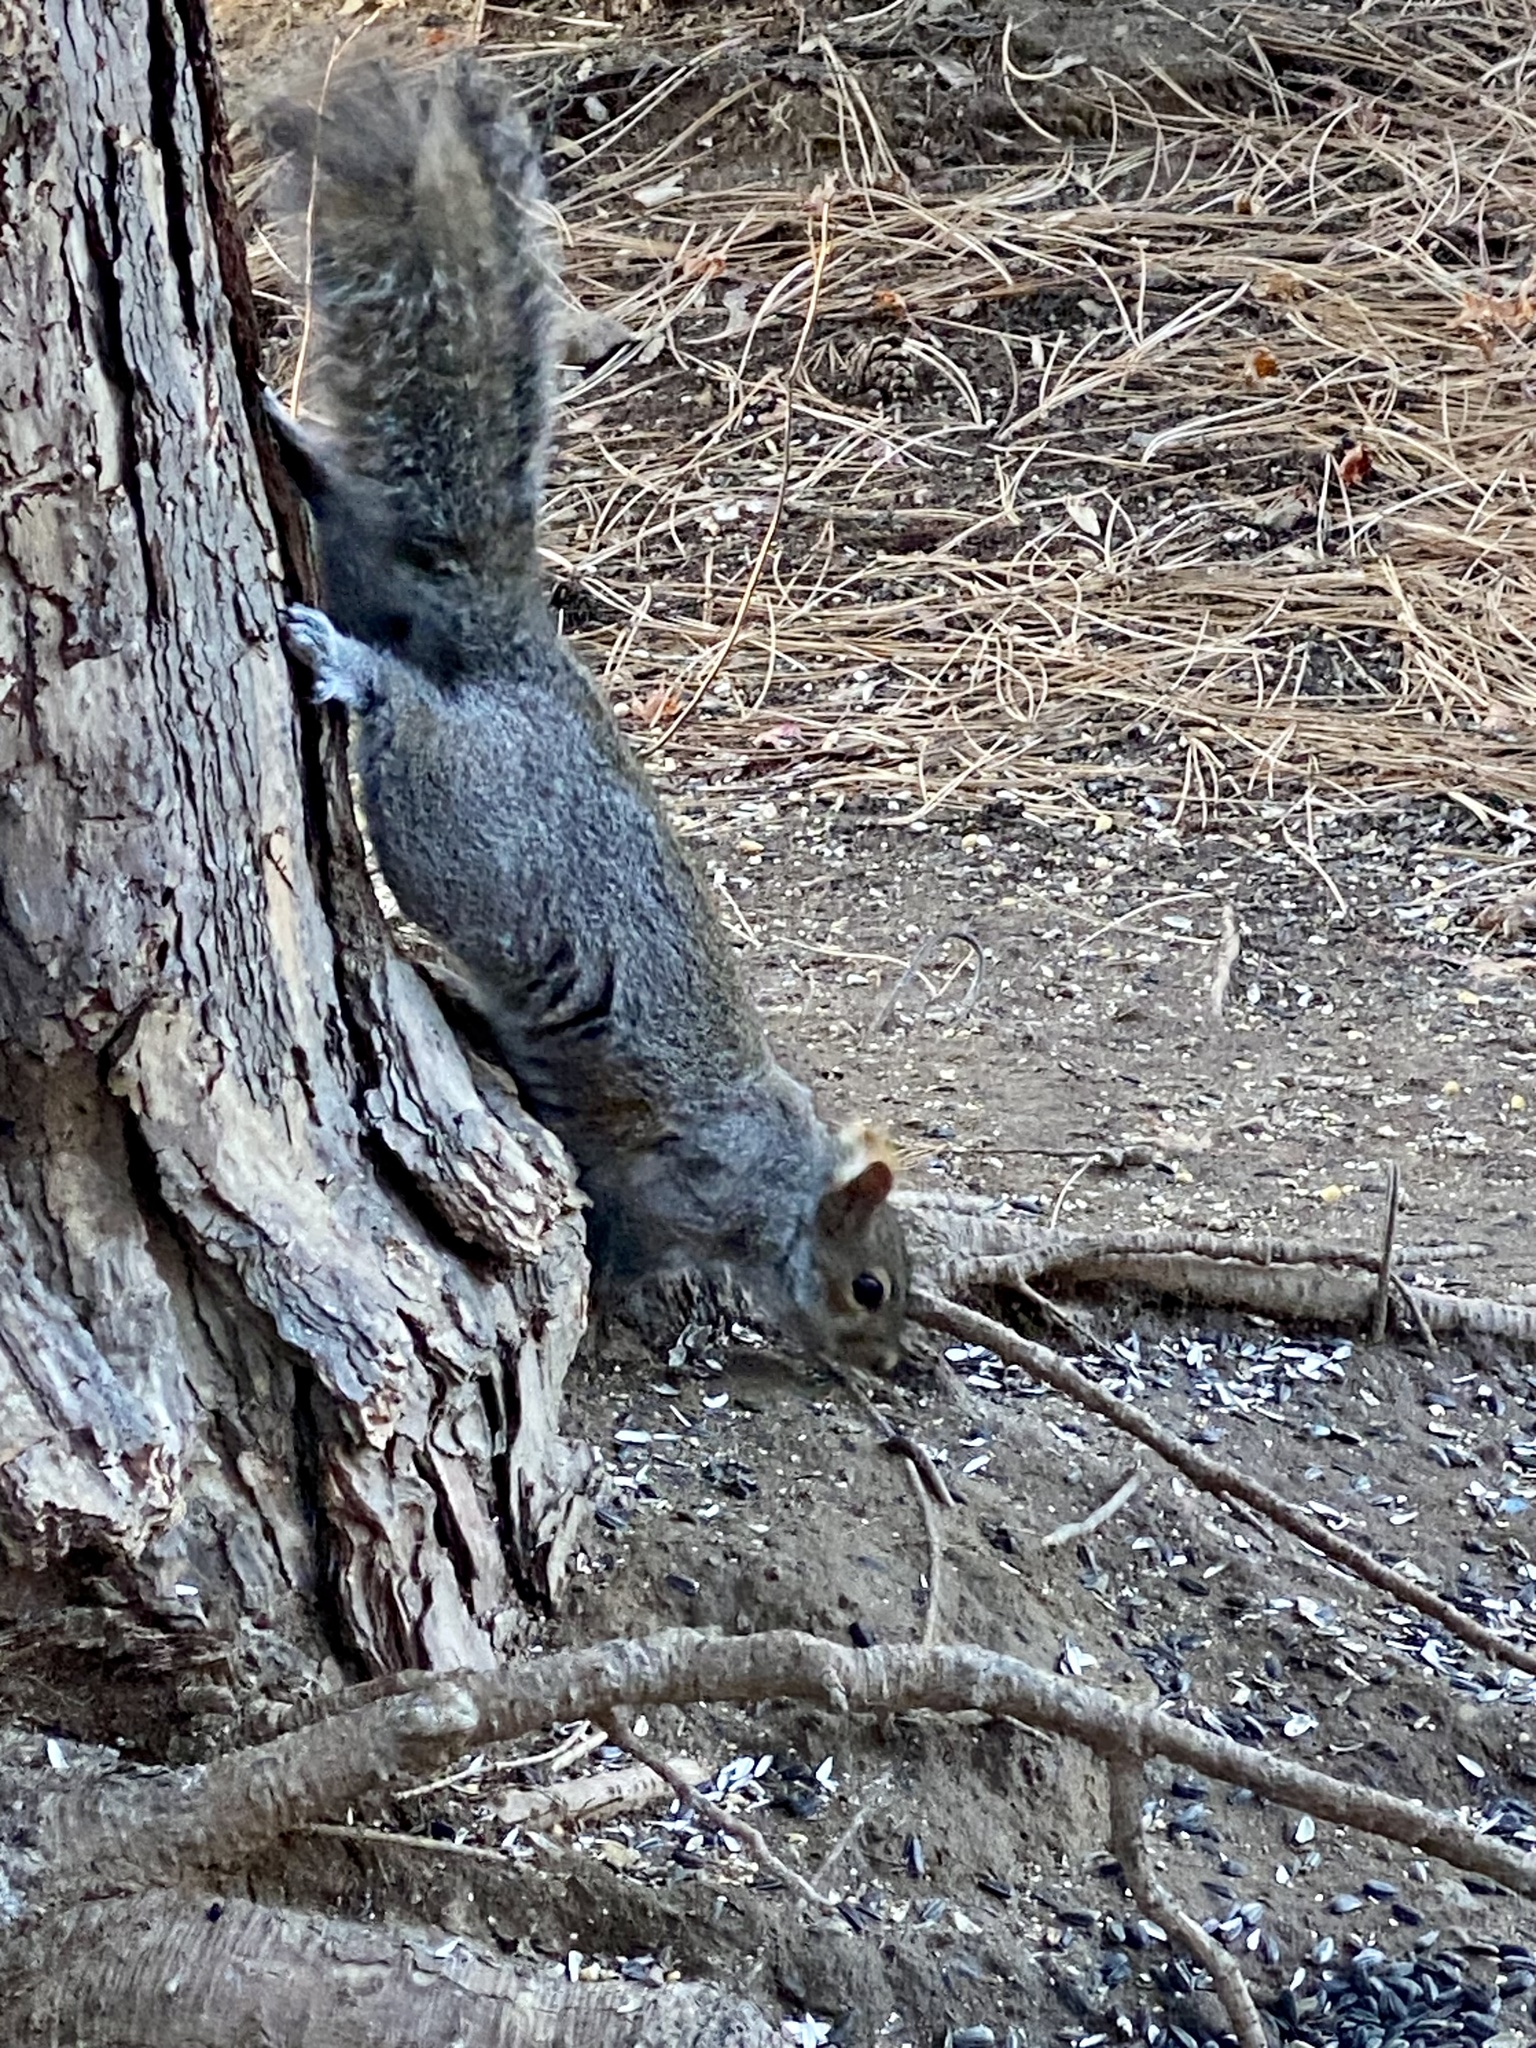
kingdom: Animalia
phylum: Chordata
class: Mammalia
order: Rodentia
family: Sciuridae
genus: Sciurus
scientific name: Sciurus carolinensis
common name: Eastern gray squirrel
